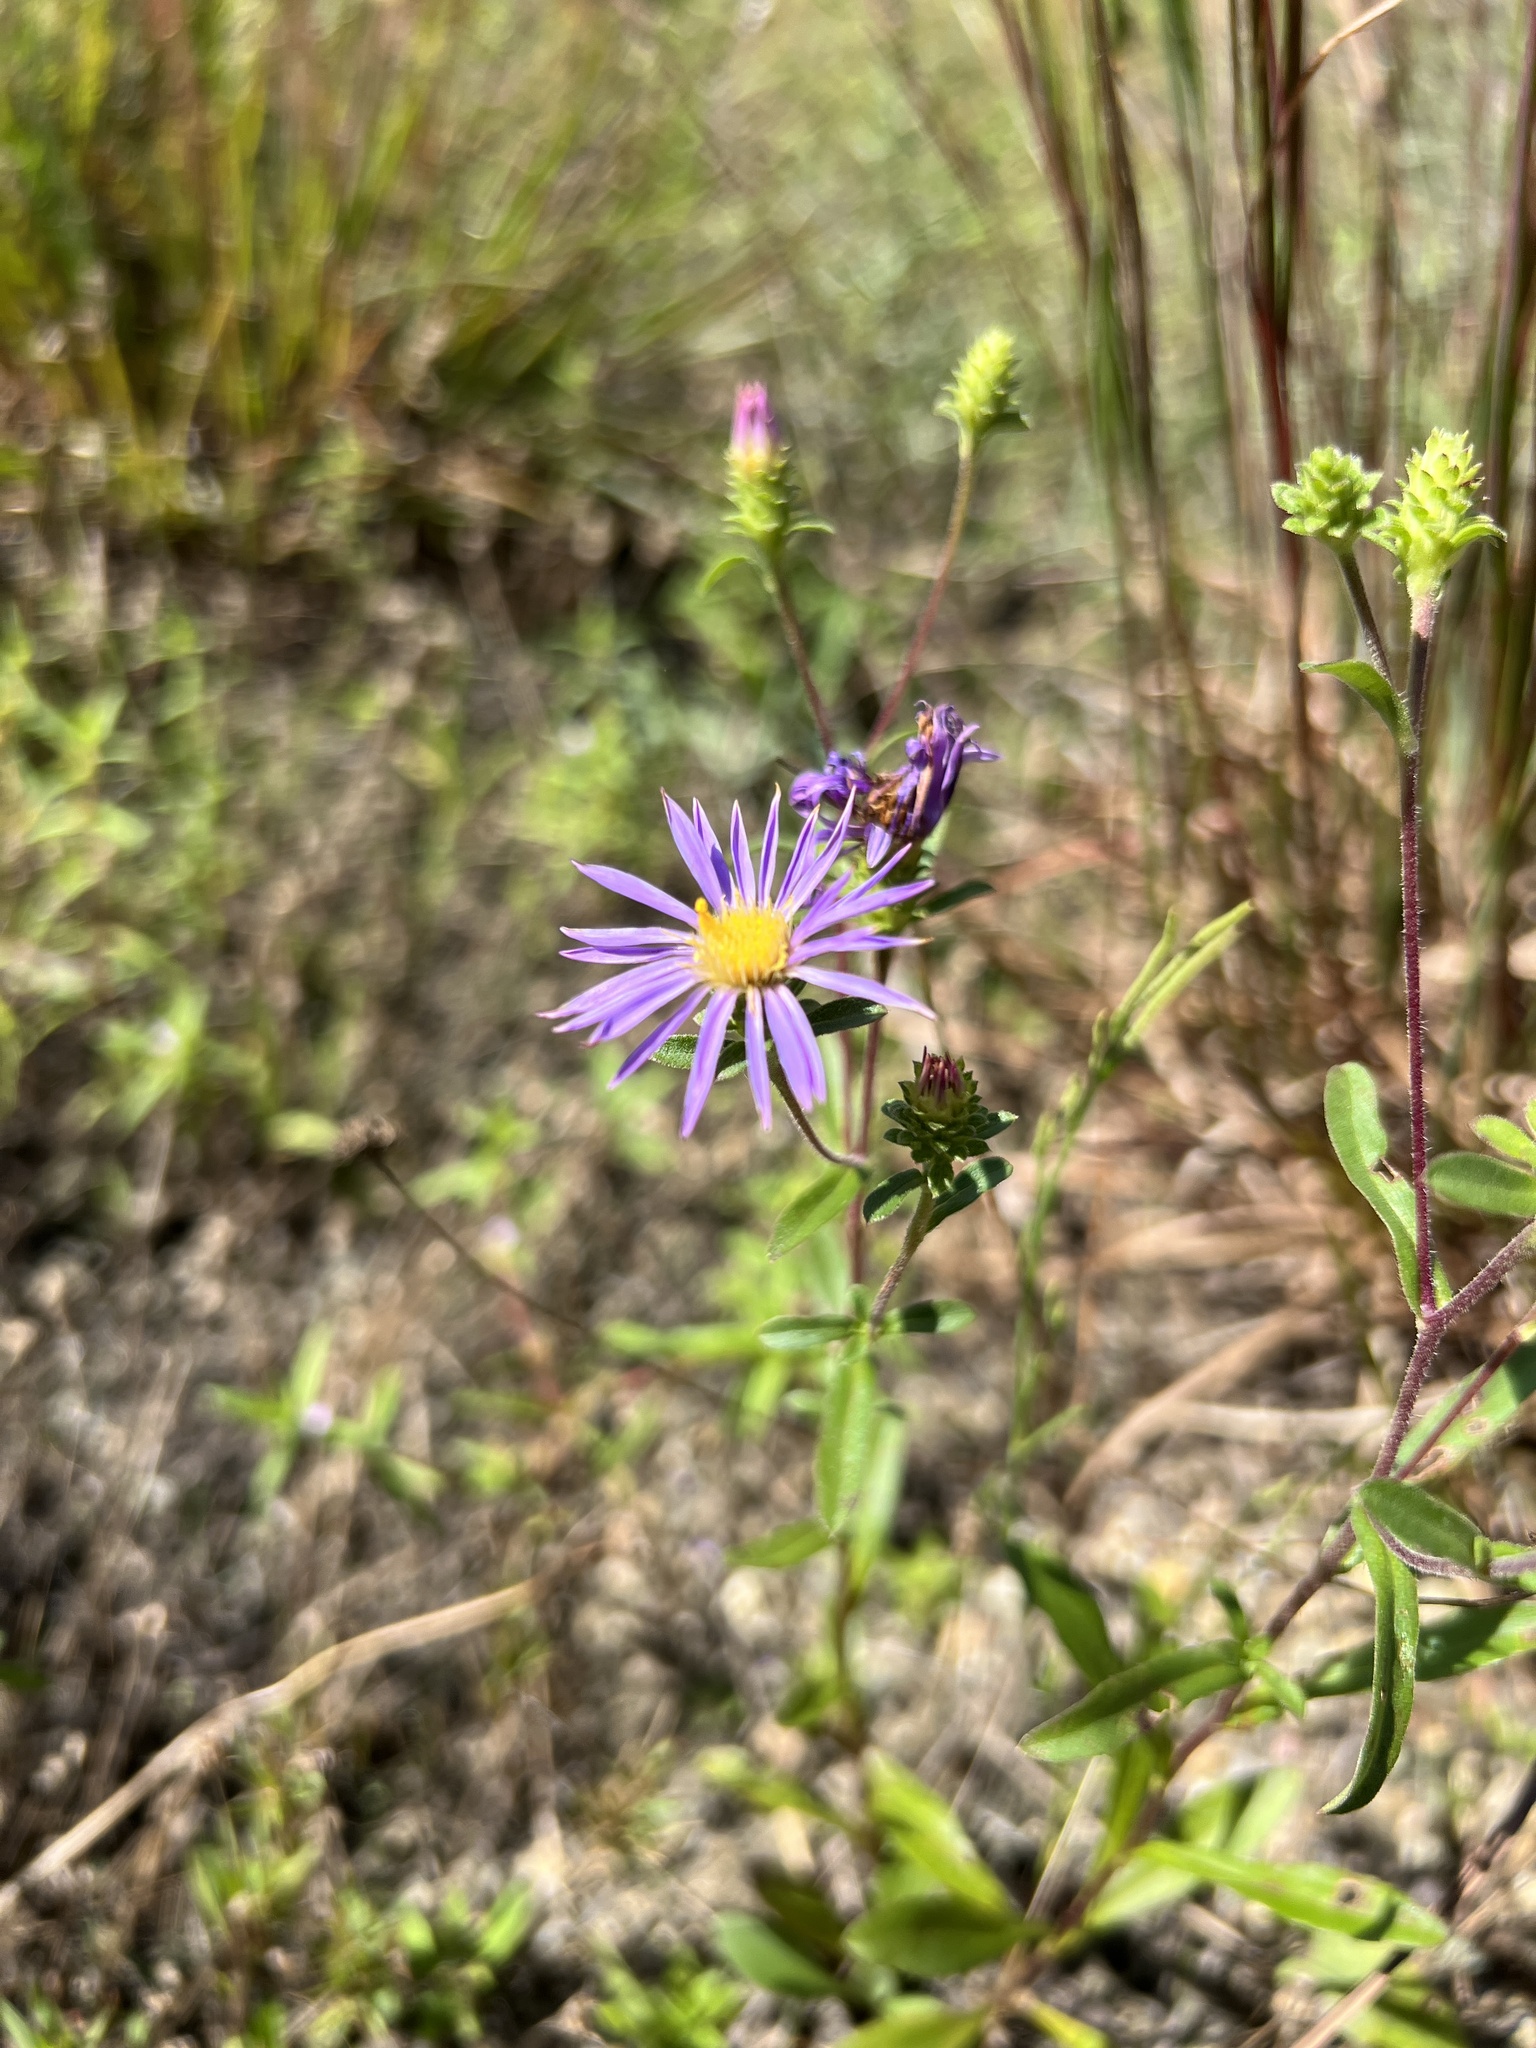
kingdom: Plantae
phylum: Tracheophyta
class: Magnoliopsida
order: Asterales
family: Asteraceae
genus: Eurybia
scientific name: Eurybia spectabilis
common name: Low showy aster
